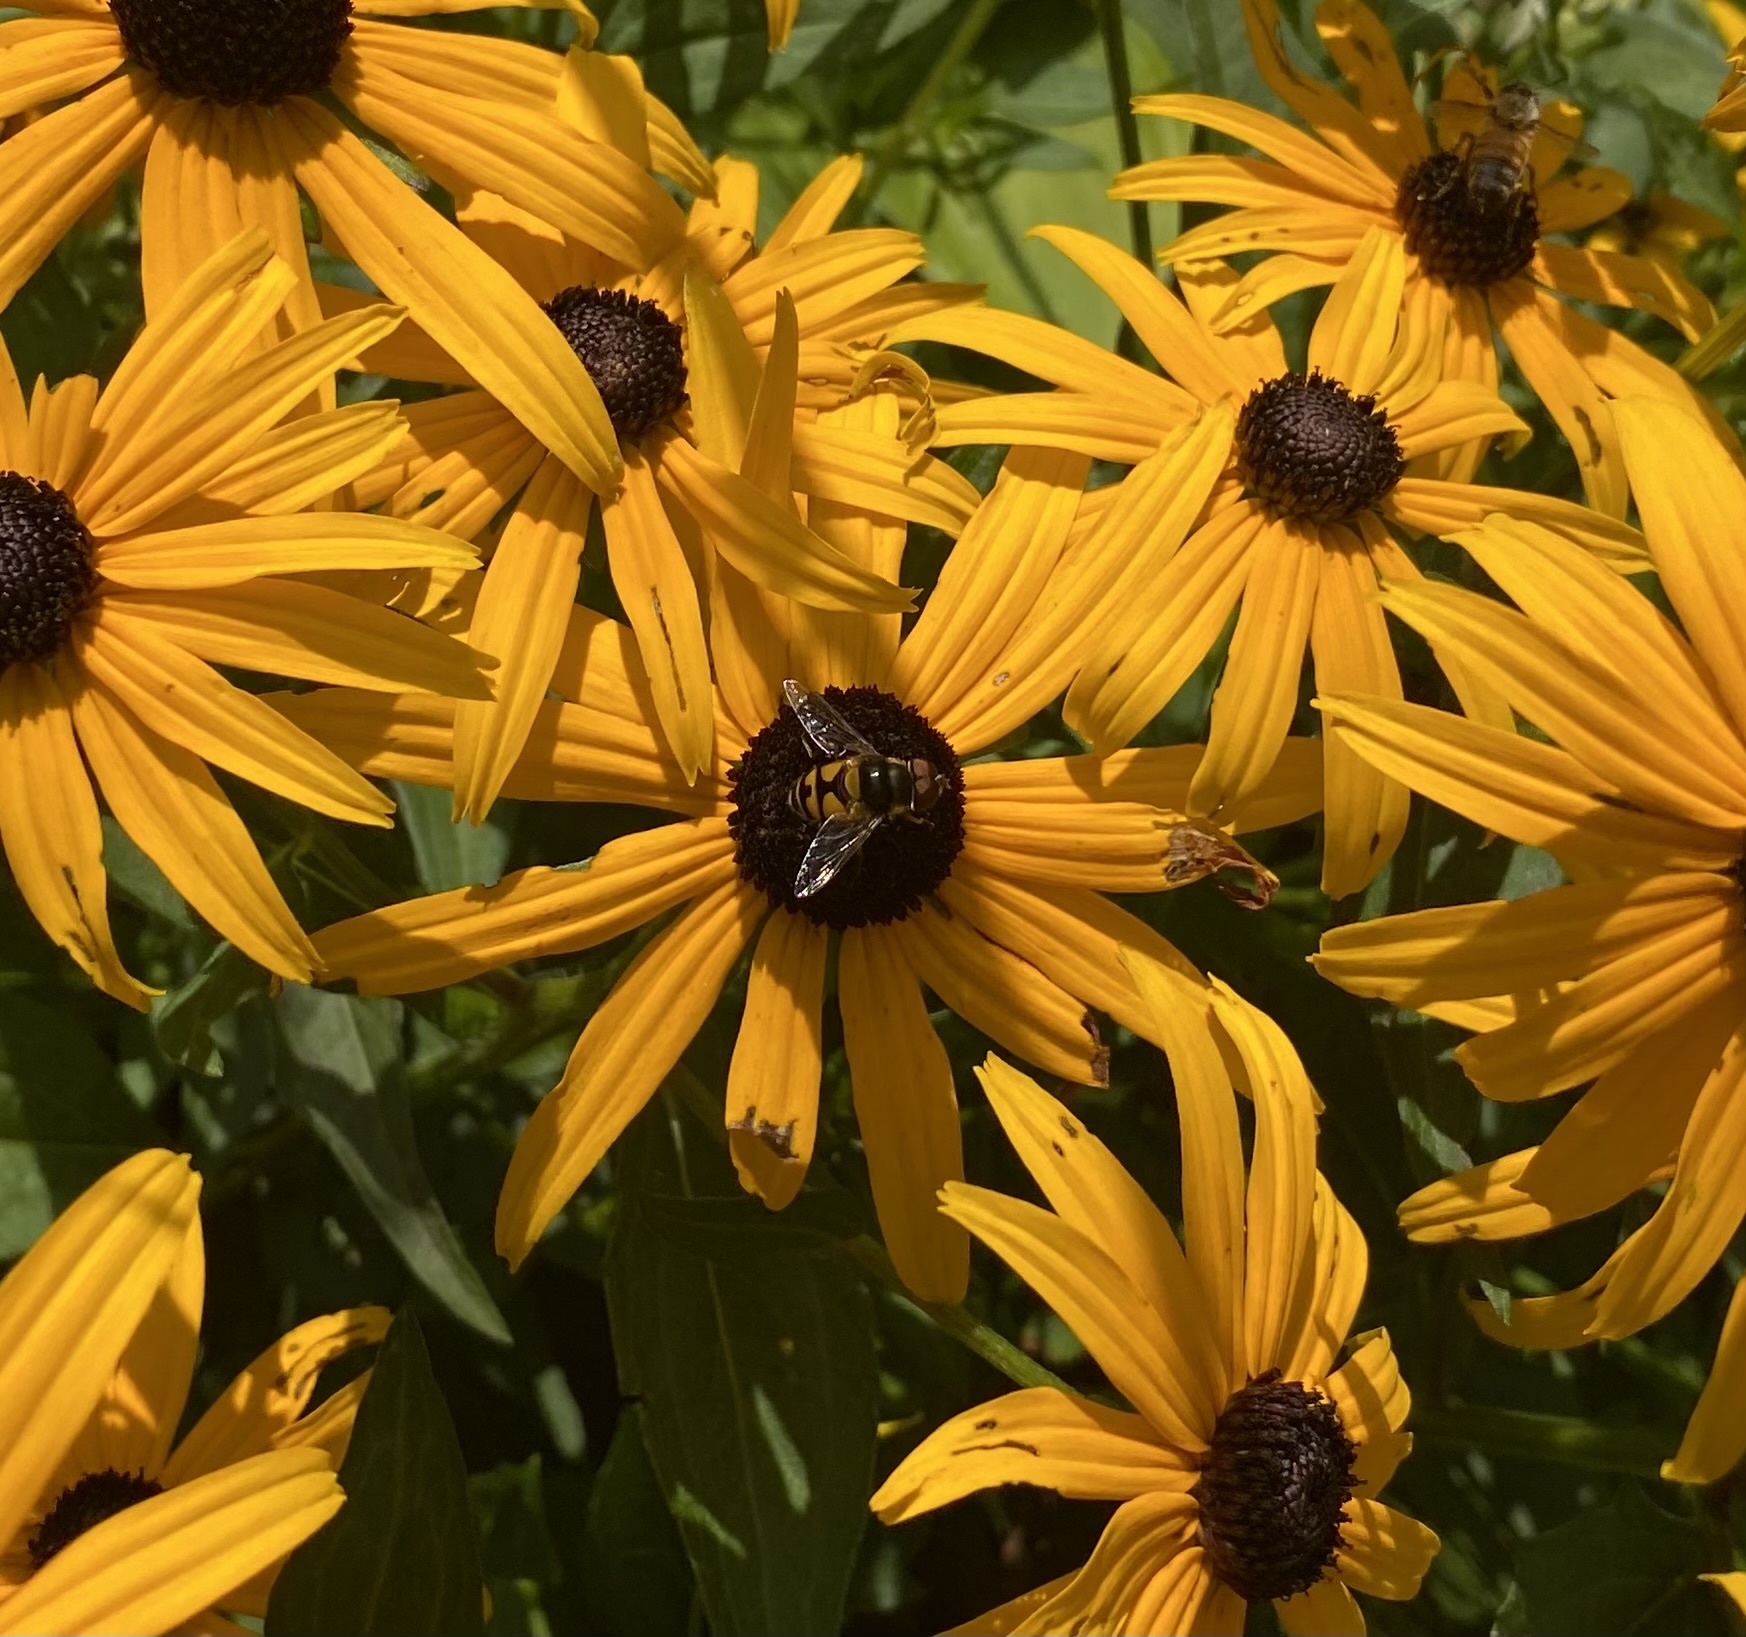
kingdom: Animalia
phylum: Arthropoda
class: Insecta
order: Diptera
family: Syrphidae
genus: Eristalis
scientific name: Eristalis transversa
